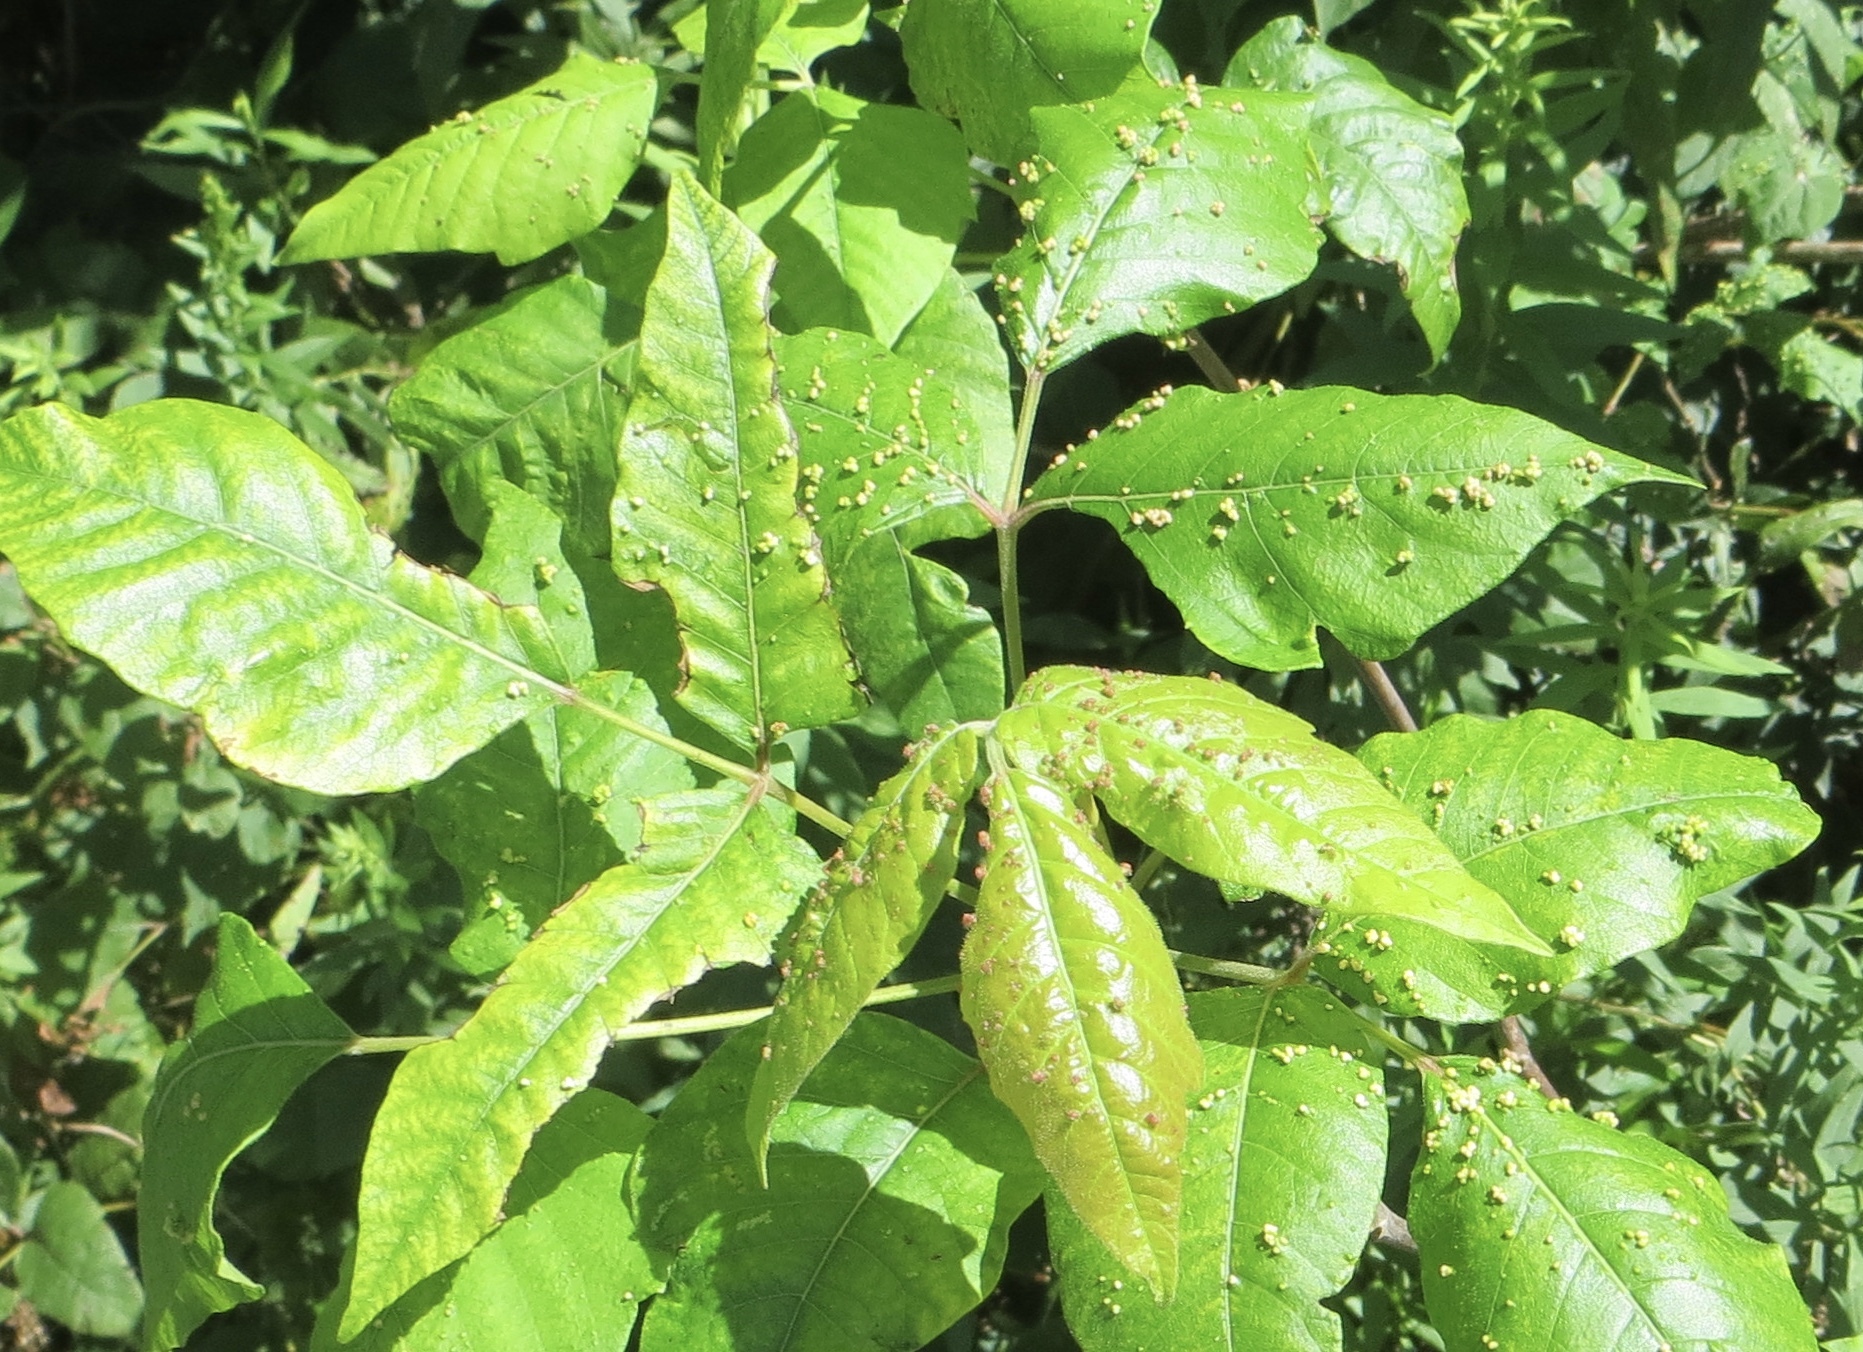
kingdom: Animalia
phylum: Arthropoda
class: Arachnida
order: Trombidiformes
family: Eriophyidae
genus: Aculops
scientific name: Aculops
